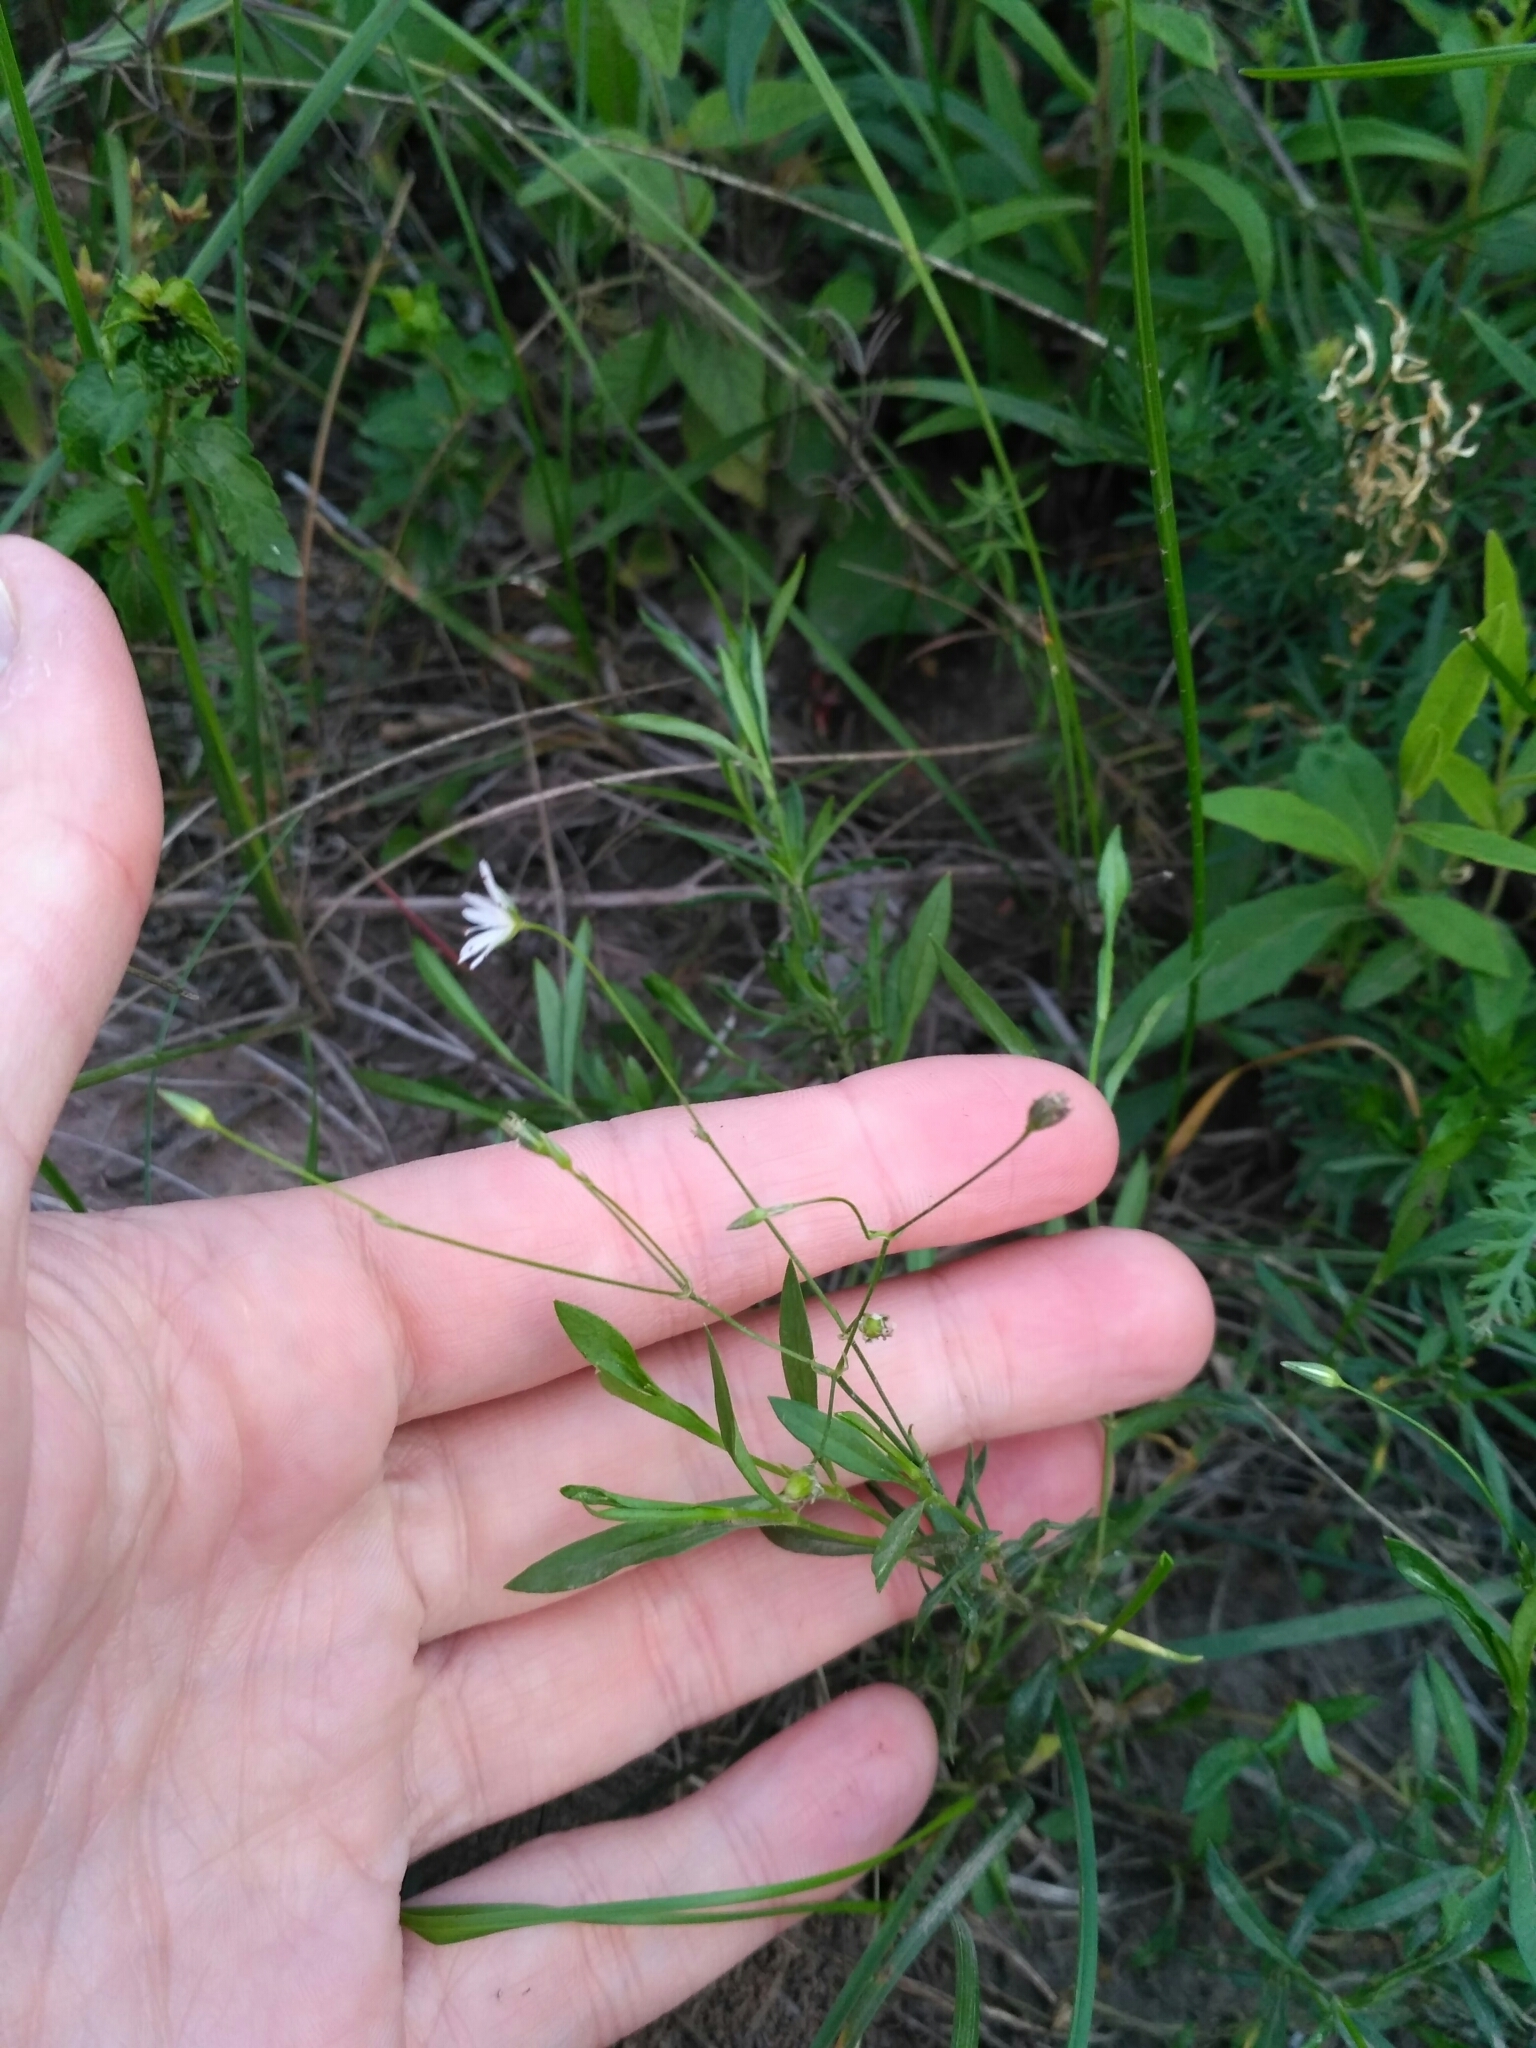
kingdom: Plantae
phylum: Tracheophyta
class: Magnoliopsida
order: Caryophyllales
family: Caryophyllaceae
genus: Stellaria
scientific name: Stellaria graminea
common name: Grass-like starwort
